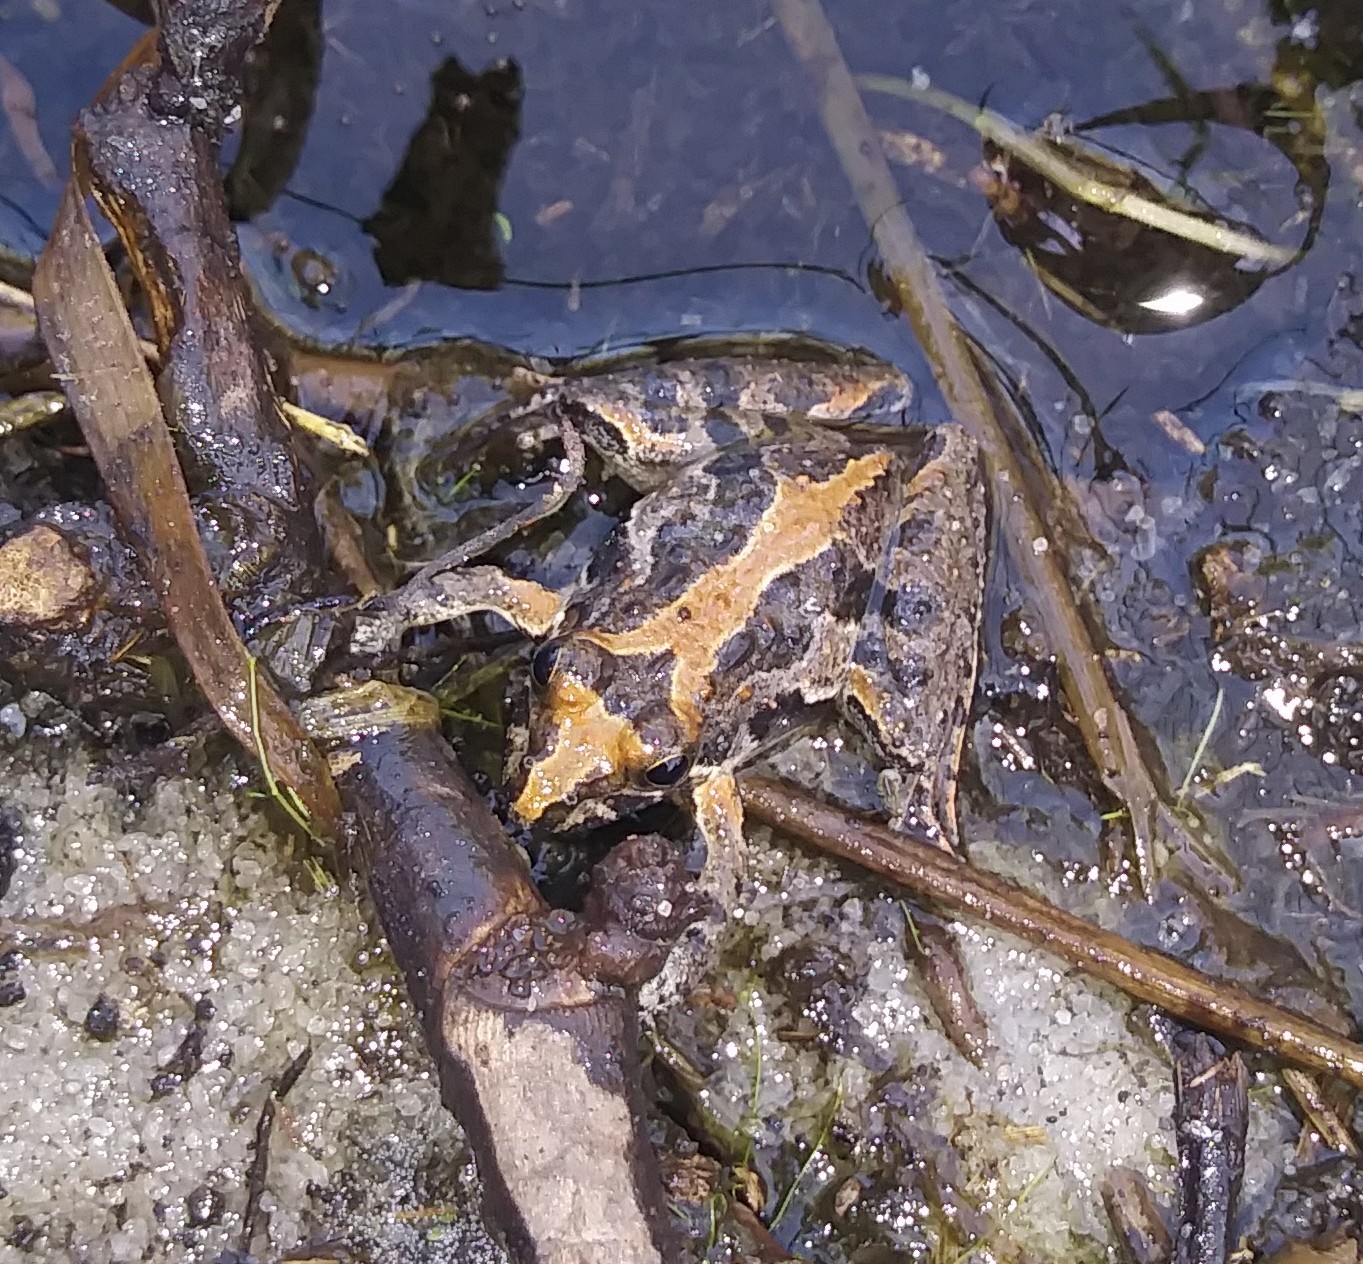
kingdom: Animalia
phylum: Chordata
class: Amphibia
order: Anura
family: Hylidae
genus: Acris
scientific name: Acris gryllus
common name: Southern cricket frog
